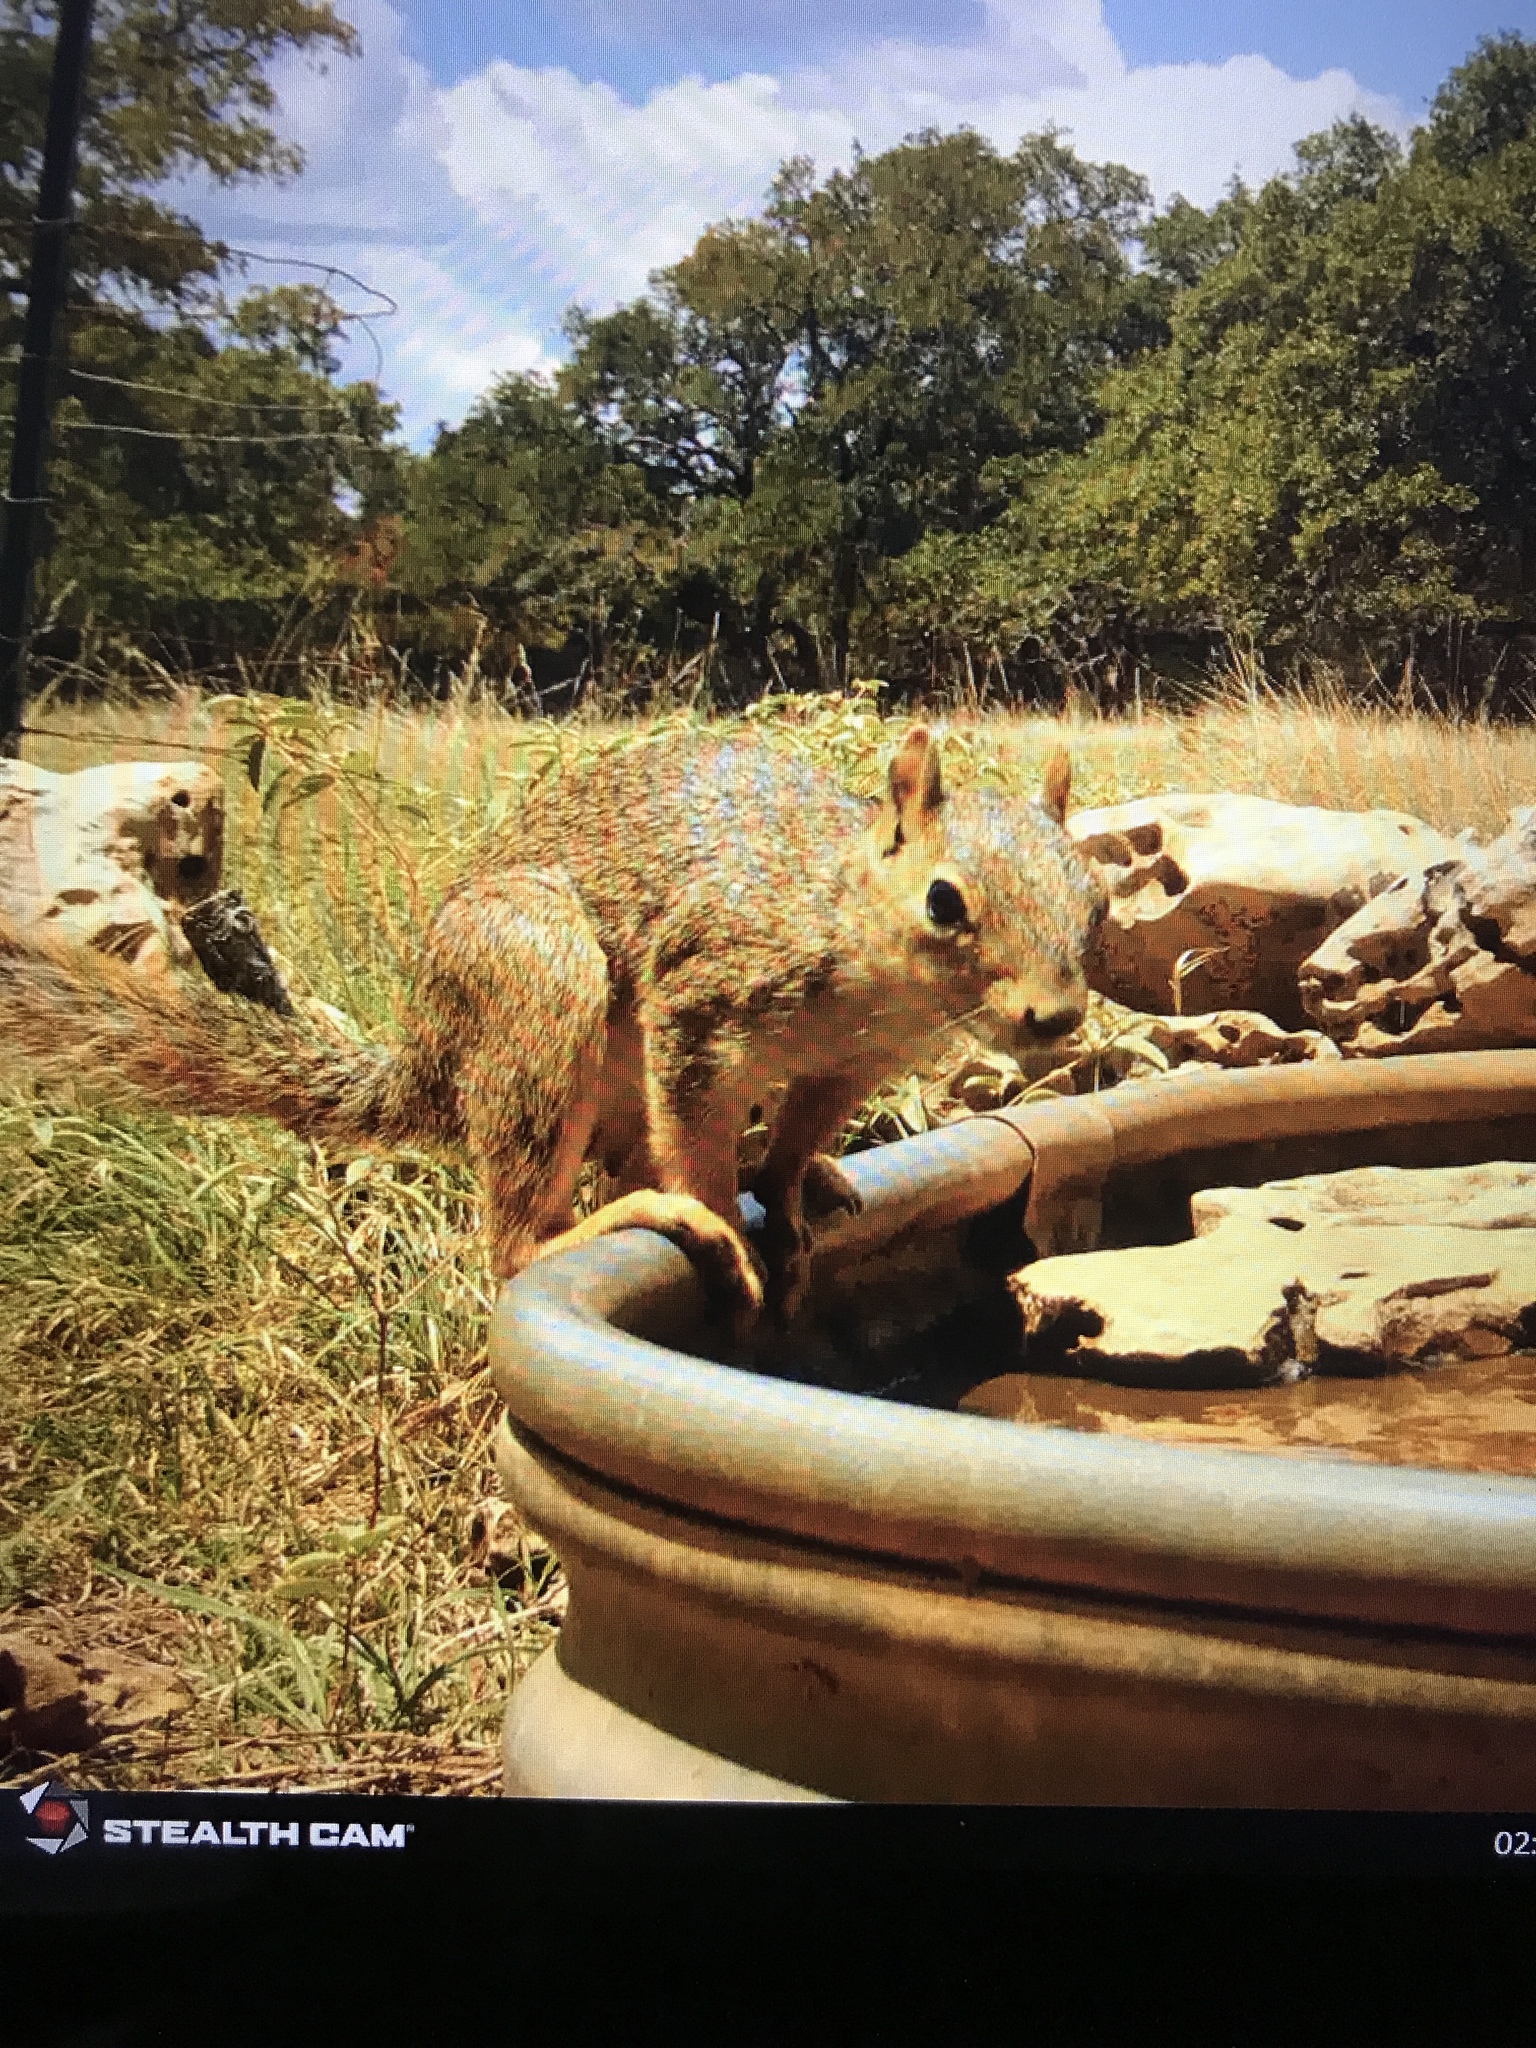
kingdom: Animalia
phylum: Chordata
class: Mammalia
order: Rodentia
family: Sciuridae
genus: Sciurus
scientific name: Sciurus niger
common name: Fox squirrel
